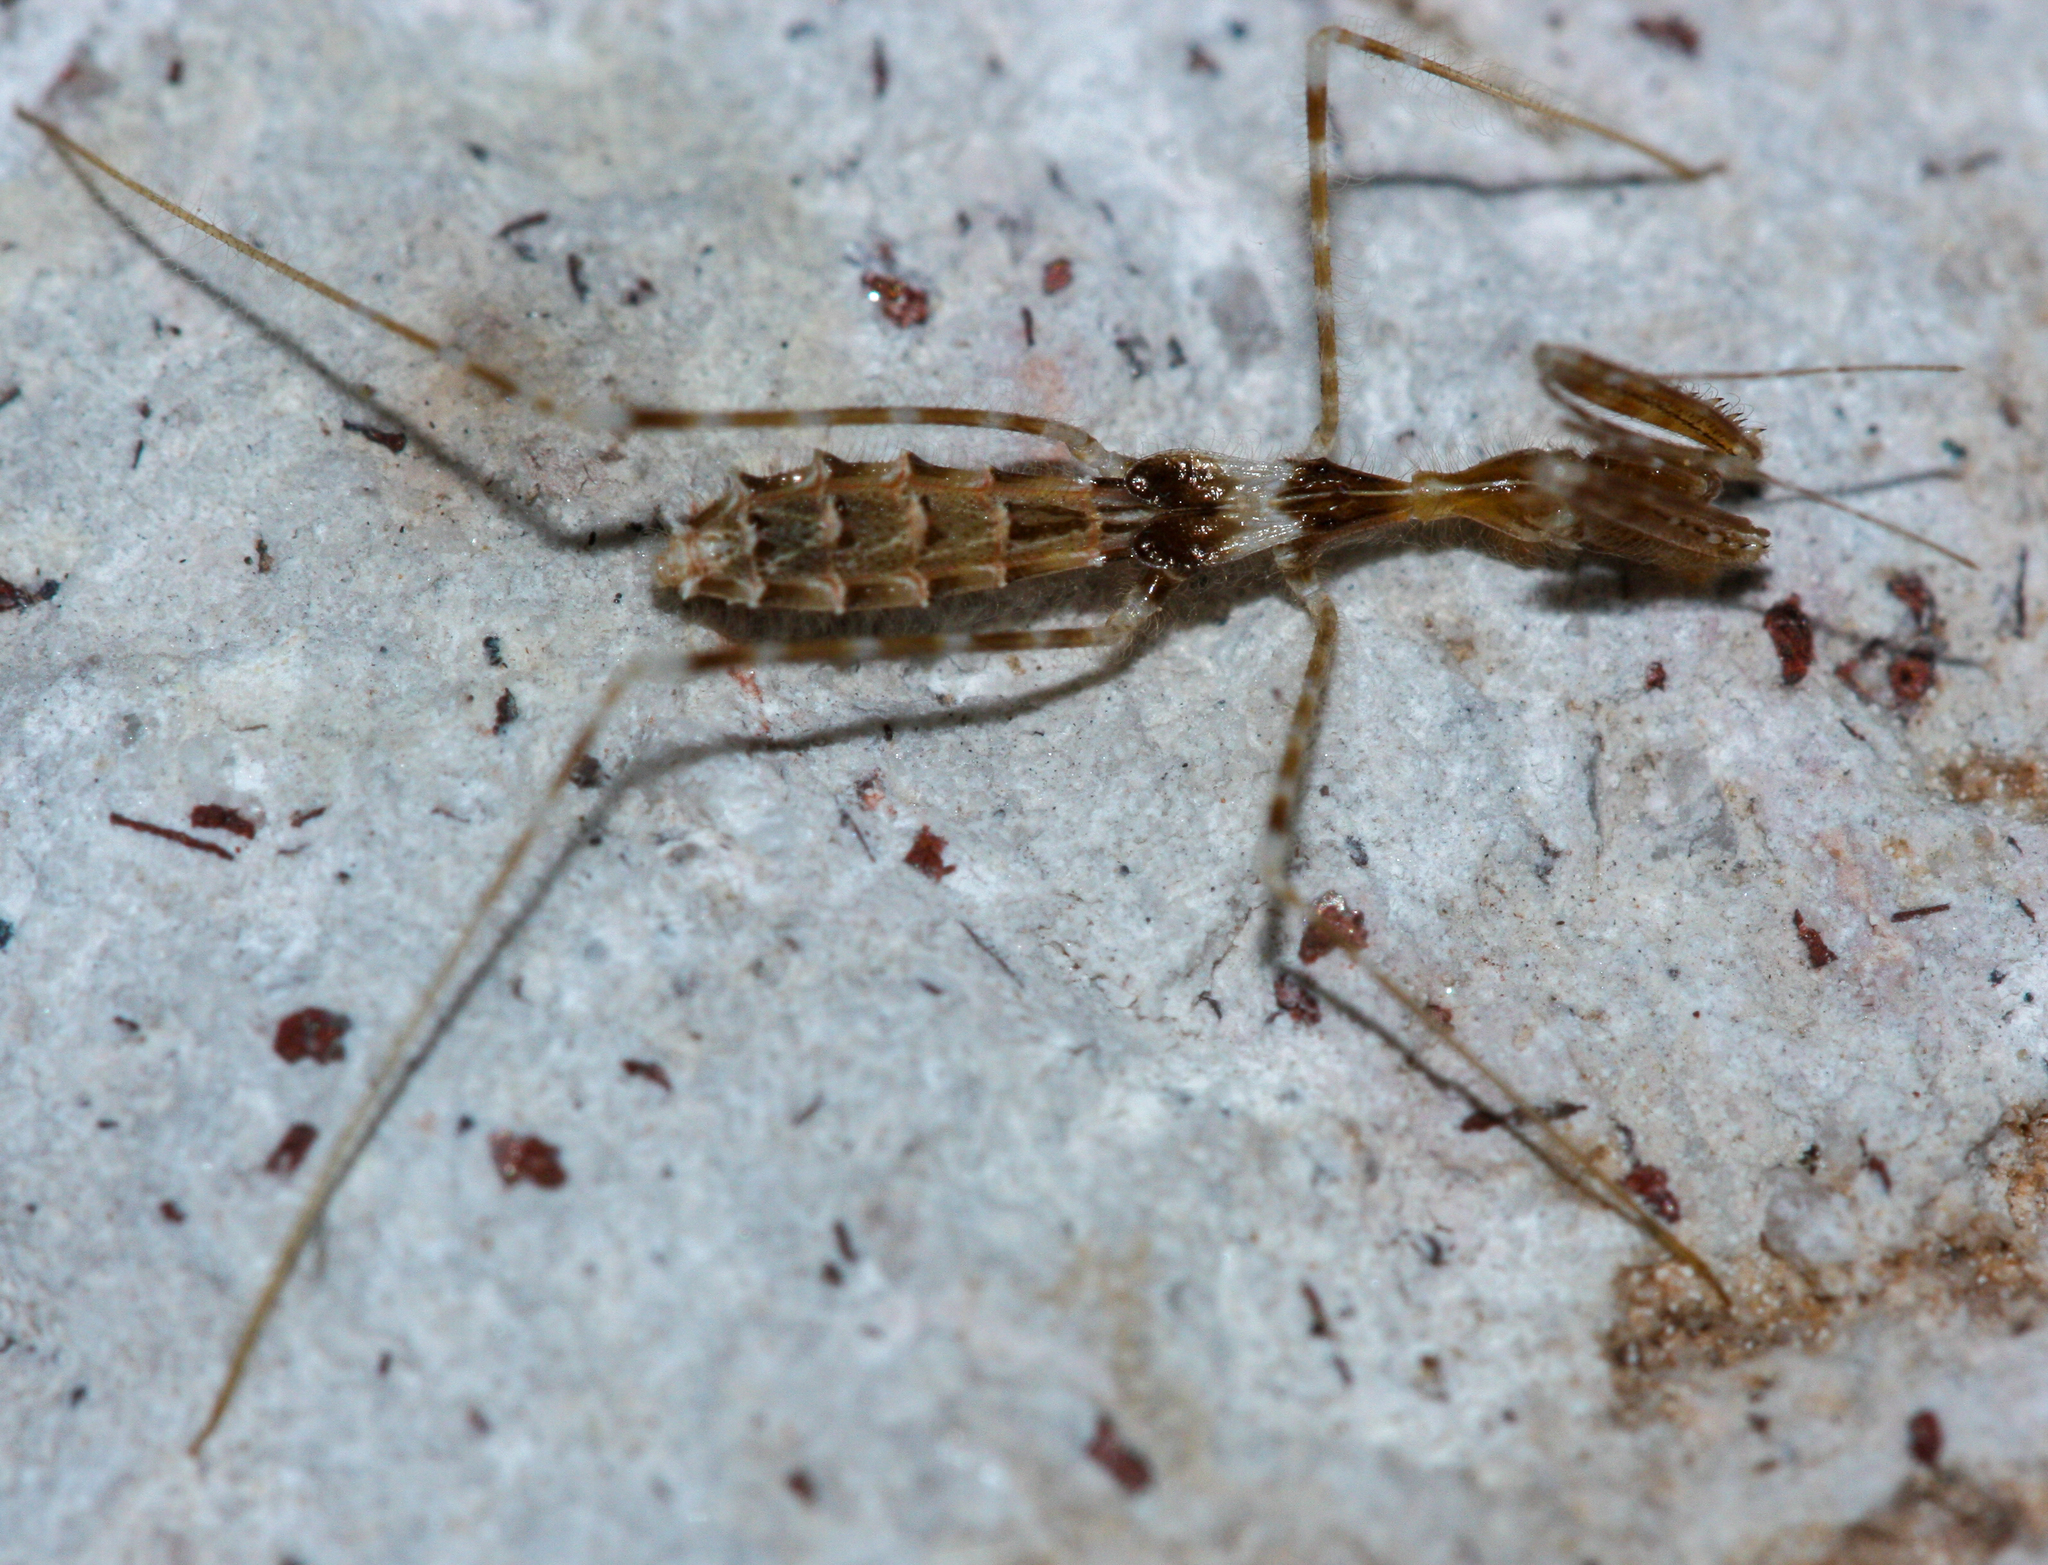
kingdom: Animalia
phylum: Arthropoda
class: Insecta
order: Hemiptera
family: Reduviidae
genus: Stenolemoides
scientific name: Stenolemoides arizonensis
